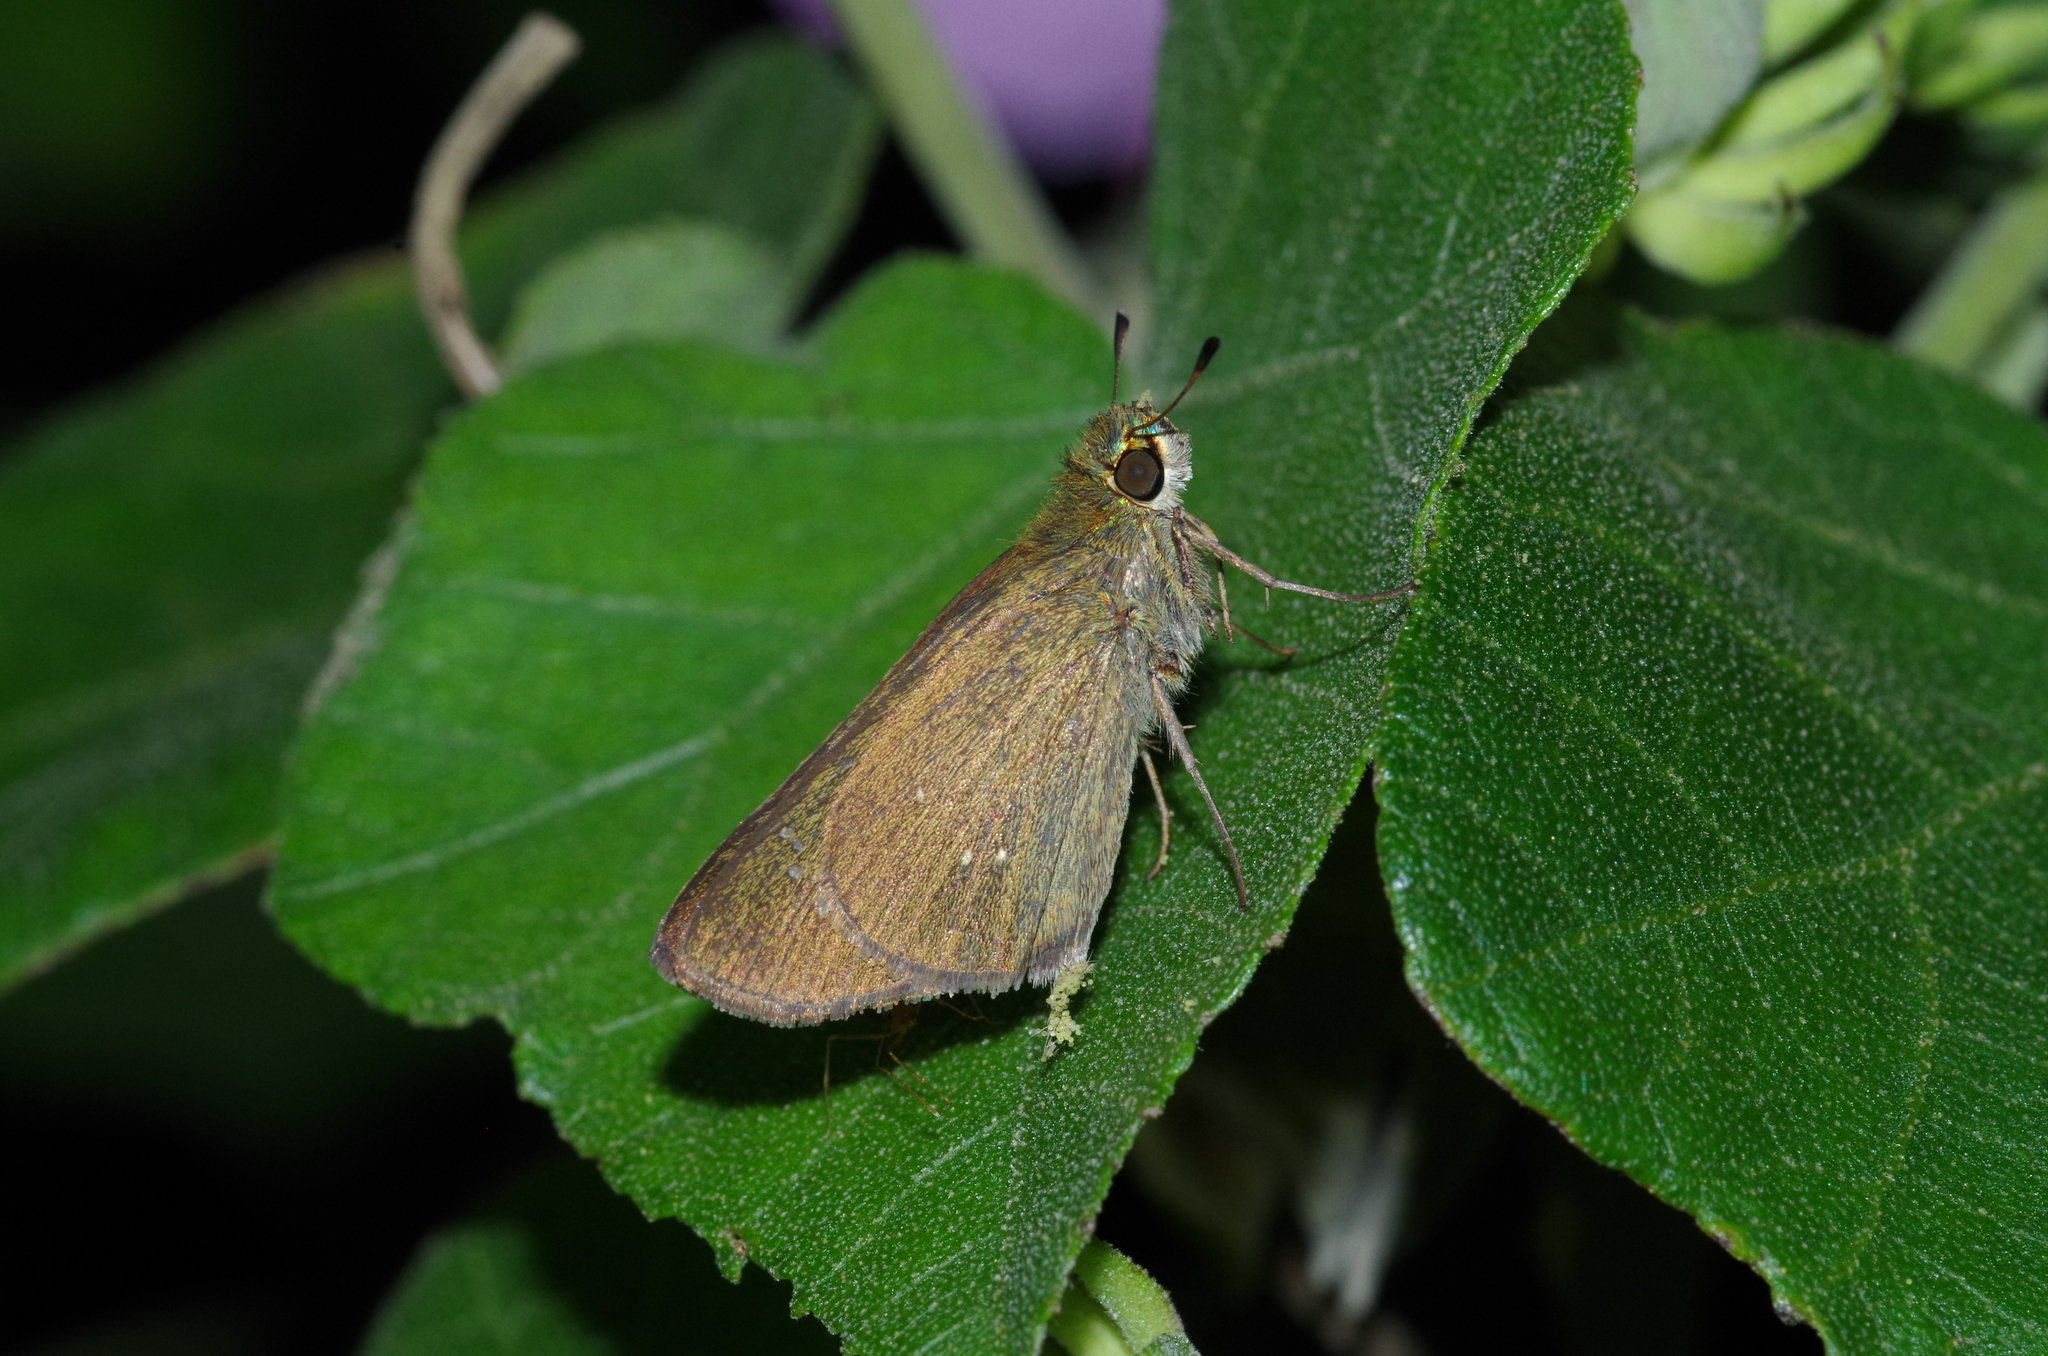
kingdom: Animalia
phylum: Arthropoda
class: Insecta
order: Lepidoptera
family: Hesperiidae
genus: Borbo
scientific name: Borbo cinnara
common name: Formosan swift
